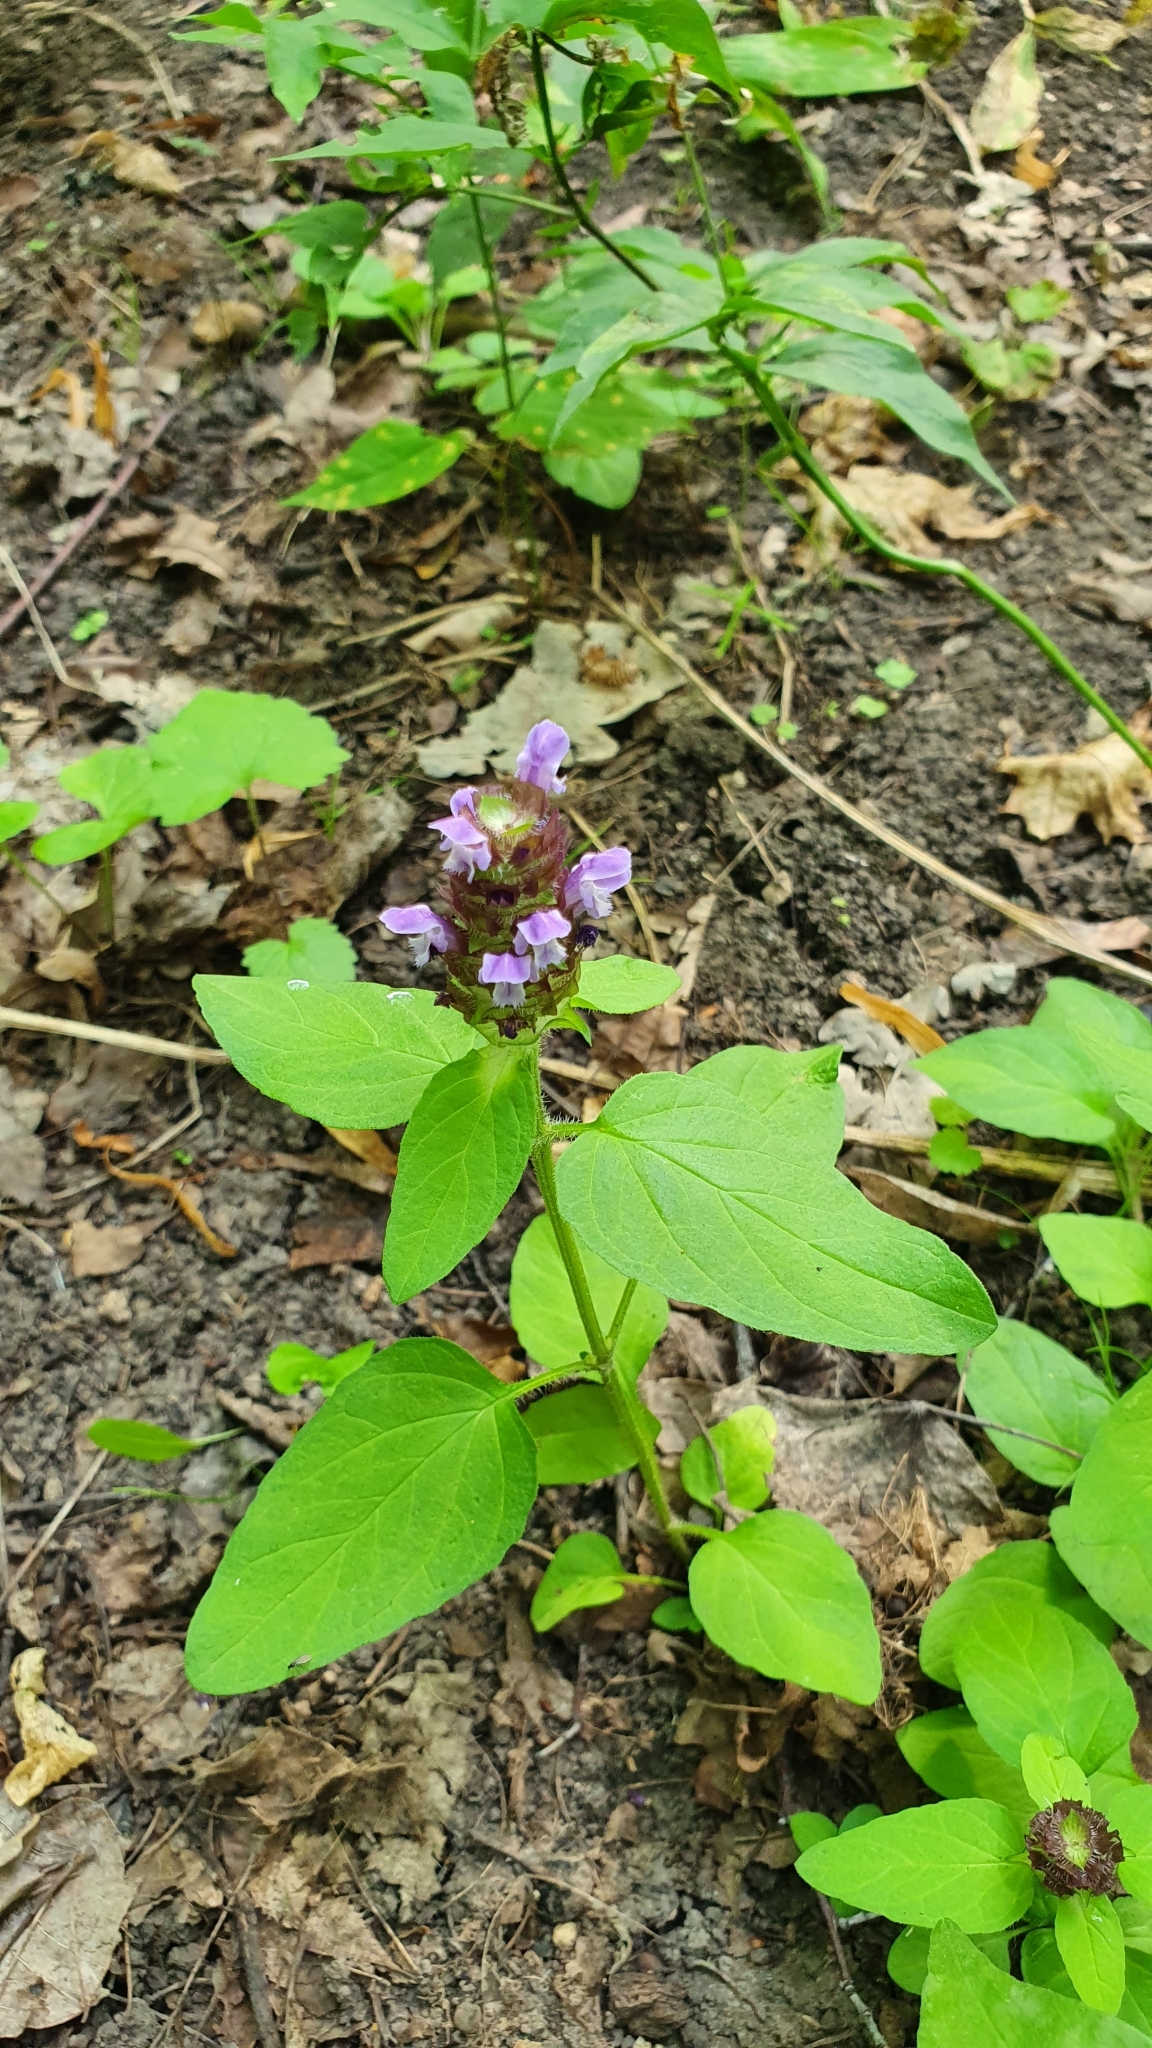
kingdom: Plantae
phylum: Tracheophyta
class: Magnoliopsida
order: Lamiales
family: Lamiaceae
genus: Prunella
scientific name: Prunella vulgaris
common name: Heal-all
